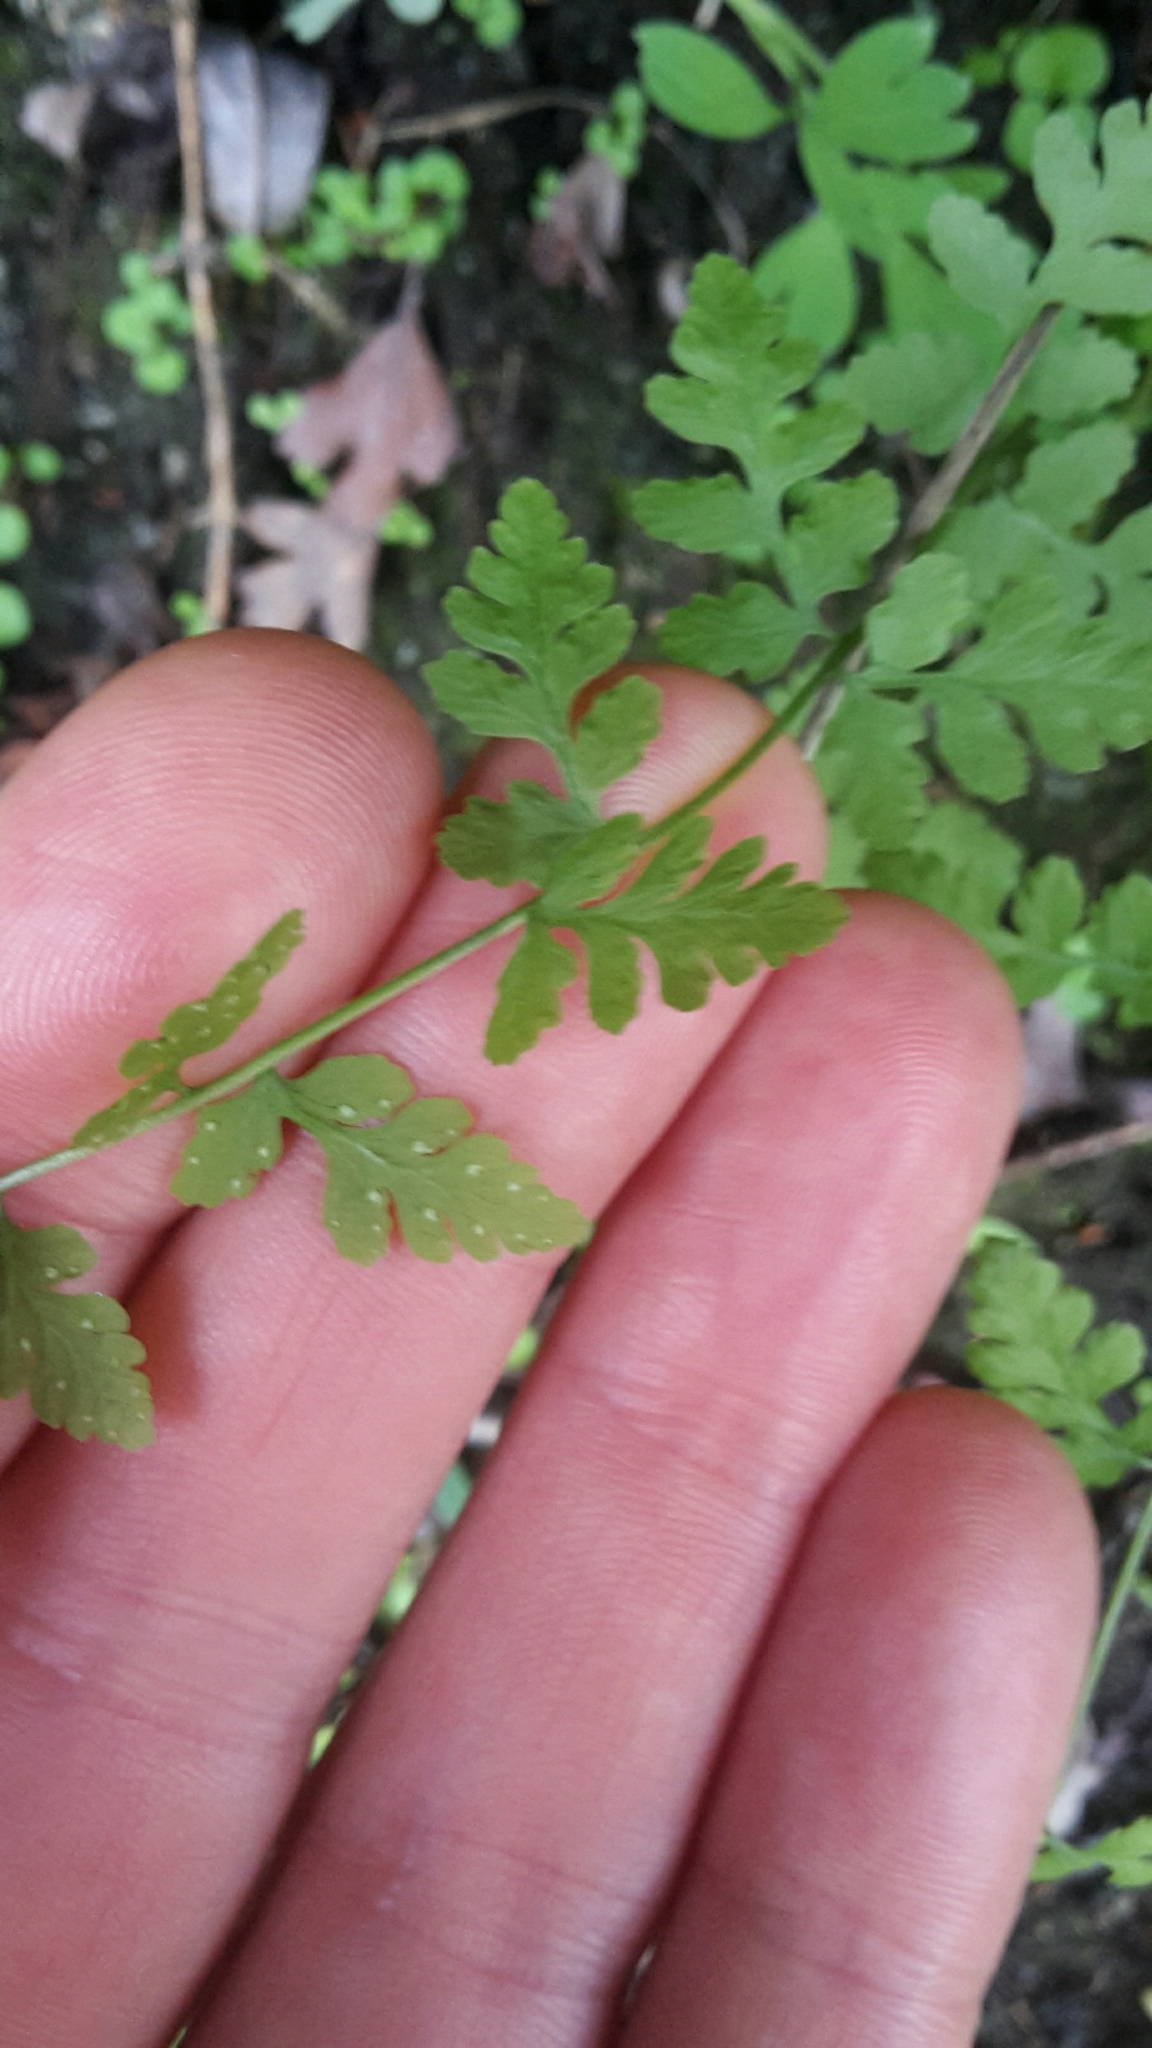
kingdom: Plantae
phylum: Tracheophyta
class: Polypodiopsida
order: Polypodiales
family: Cystopteridaceae
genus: Cystopteris
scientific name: Cystopteris tasmanica
